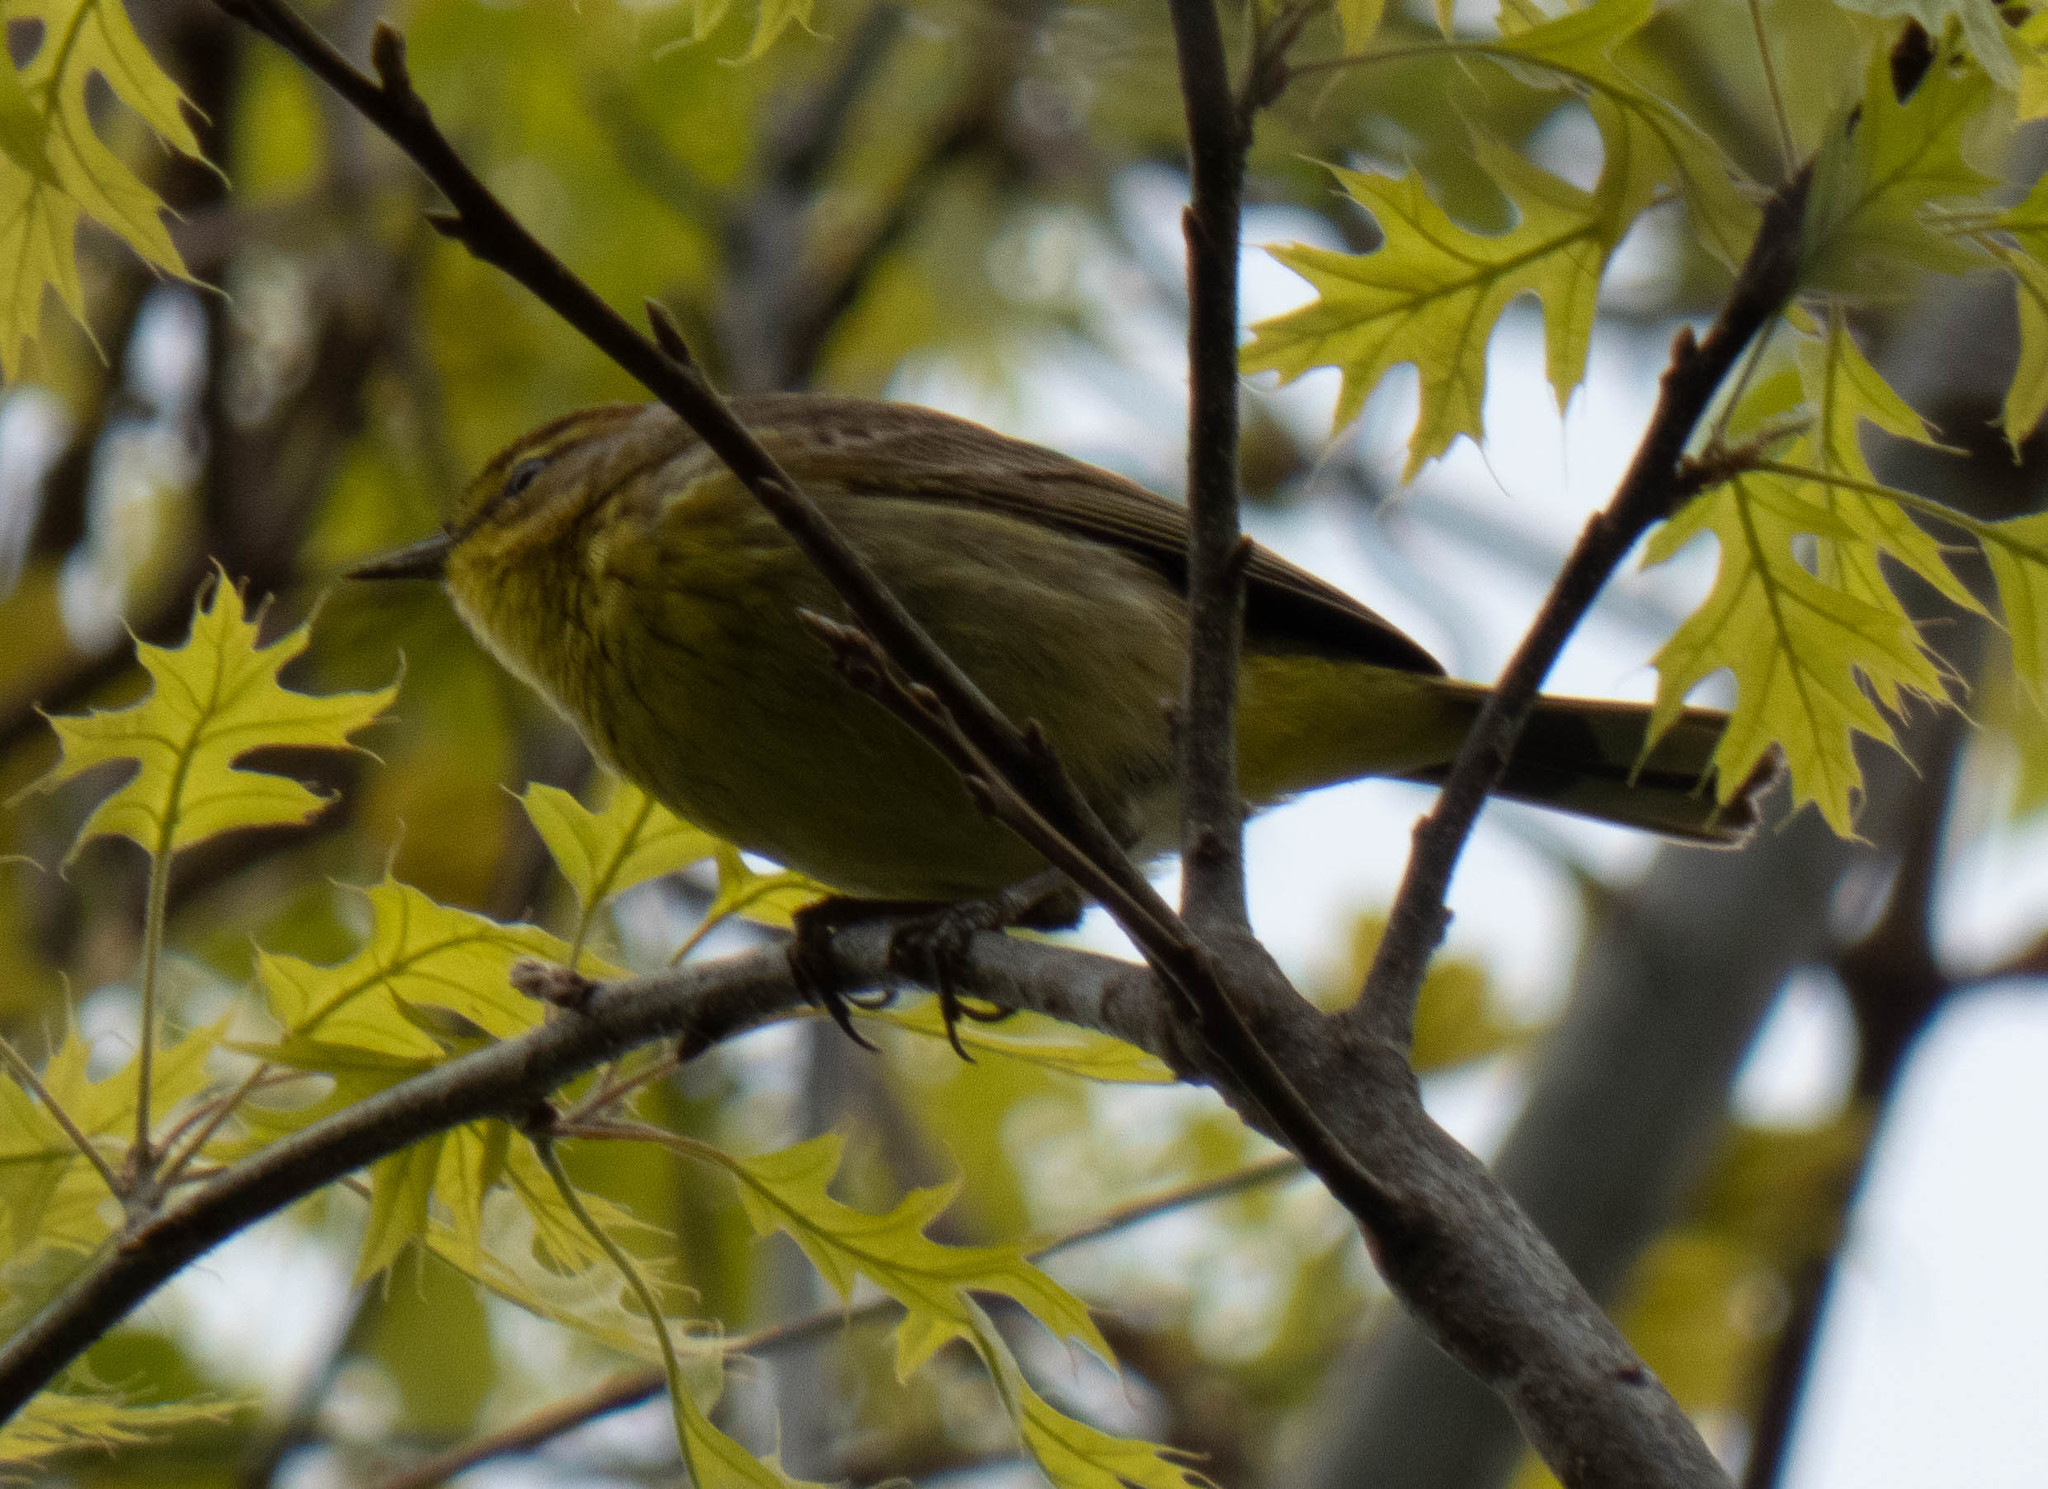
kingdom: Animalia
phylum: Chordata
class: Aves
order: Passeriformes
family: Parulidae
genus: Setophaga
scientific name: Setophaga palmarum
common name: Palm warbler
